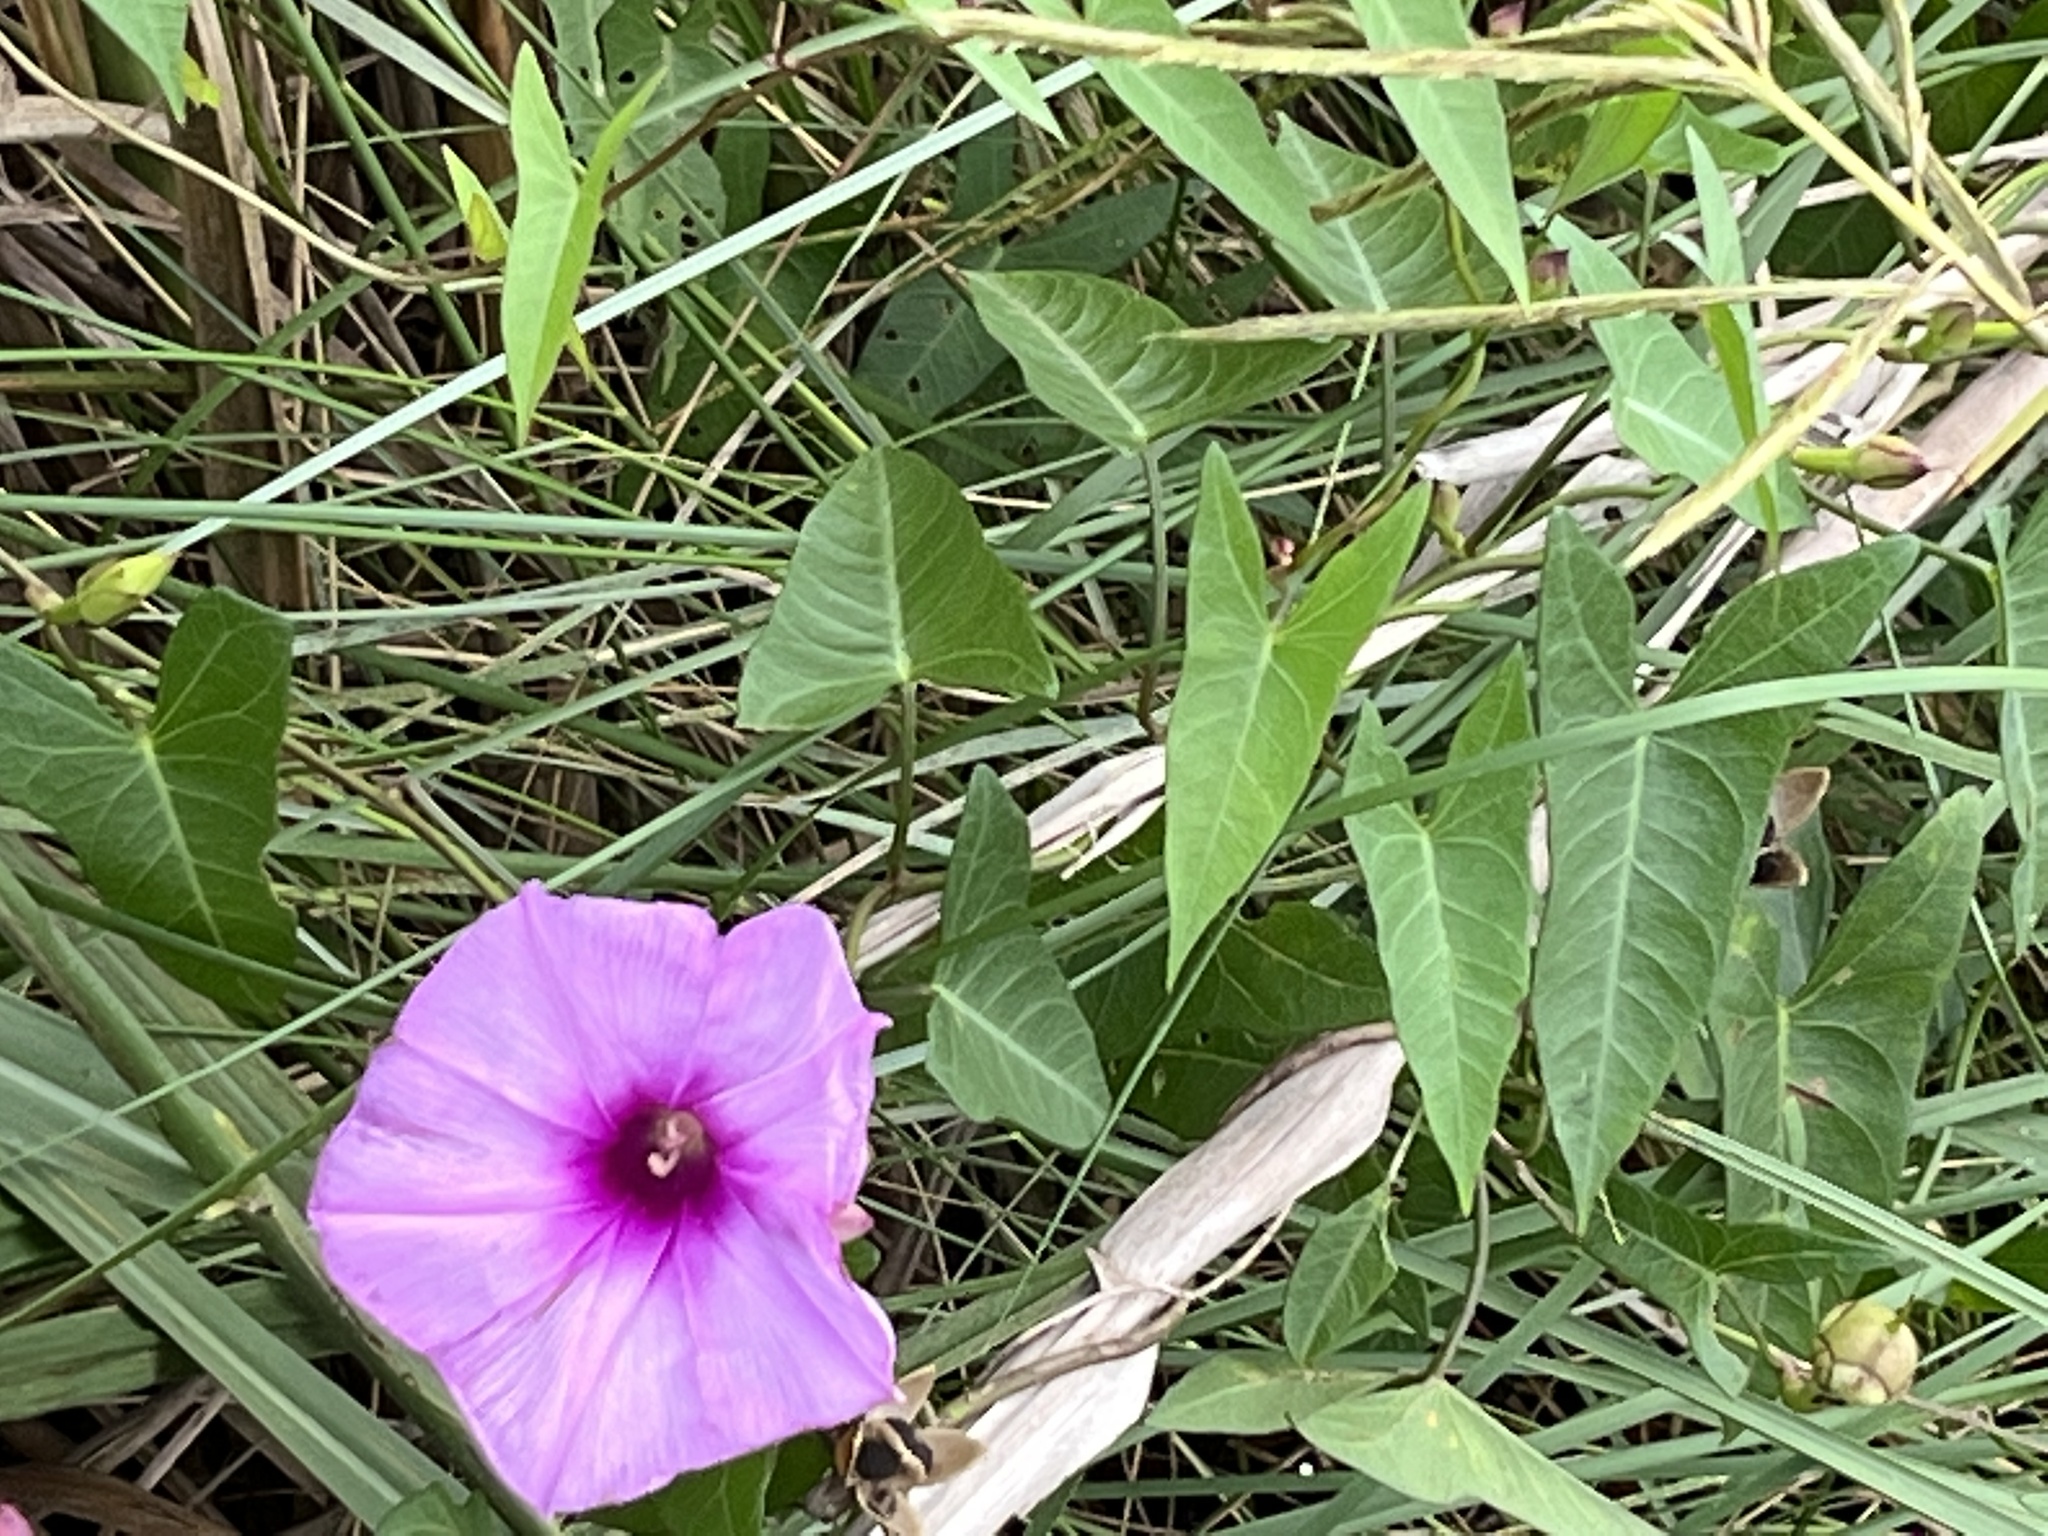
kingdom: Plantae
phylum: Tracheophyta
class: Magnoliopsida
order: Solanales
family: Convolvulaceae
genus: Ipomoea
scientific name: Ipomoea sagittata
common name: Saltmarsh morning glory
